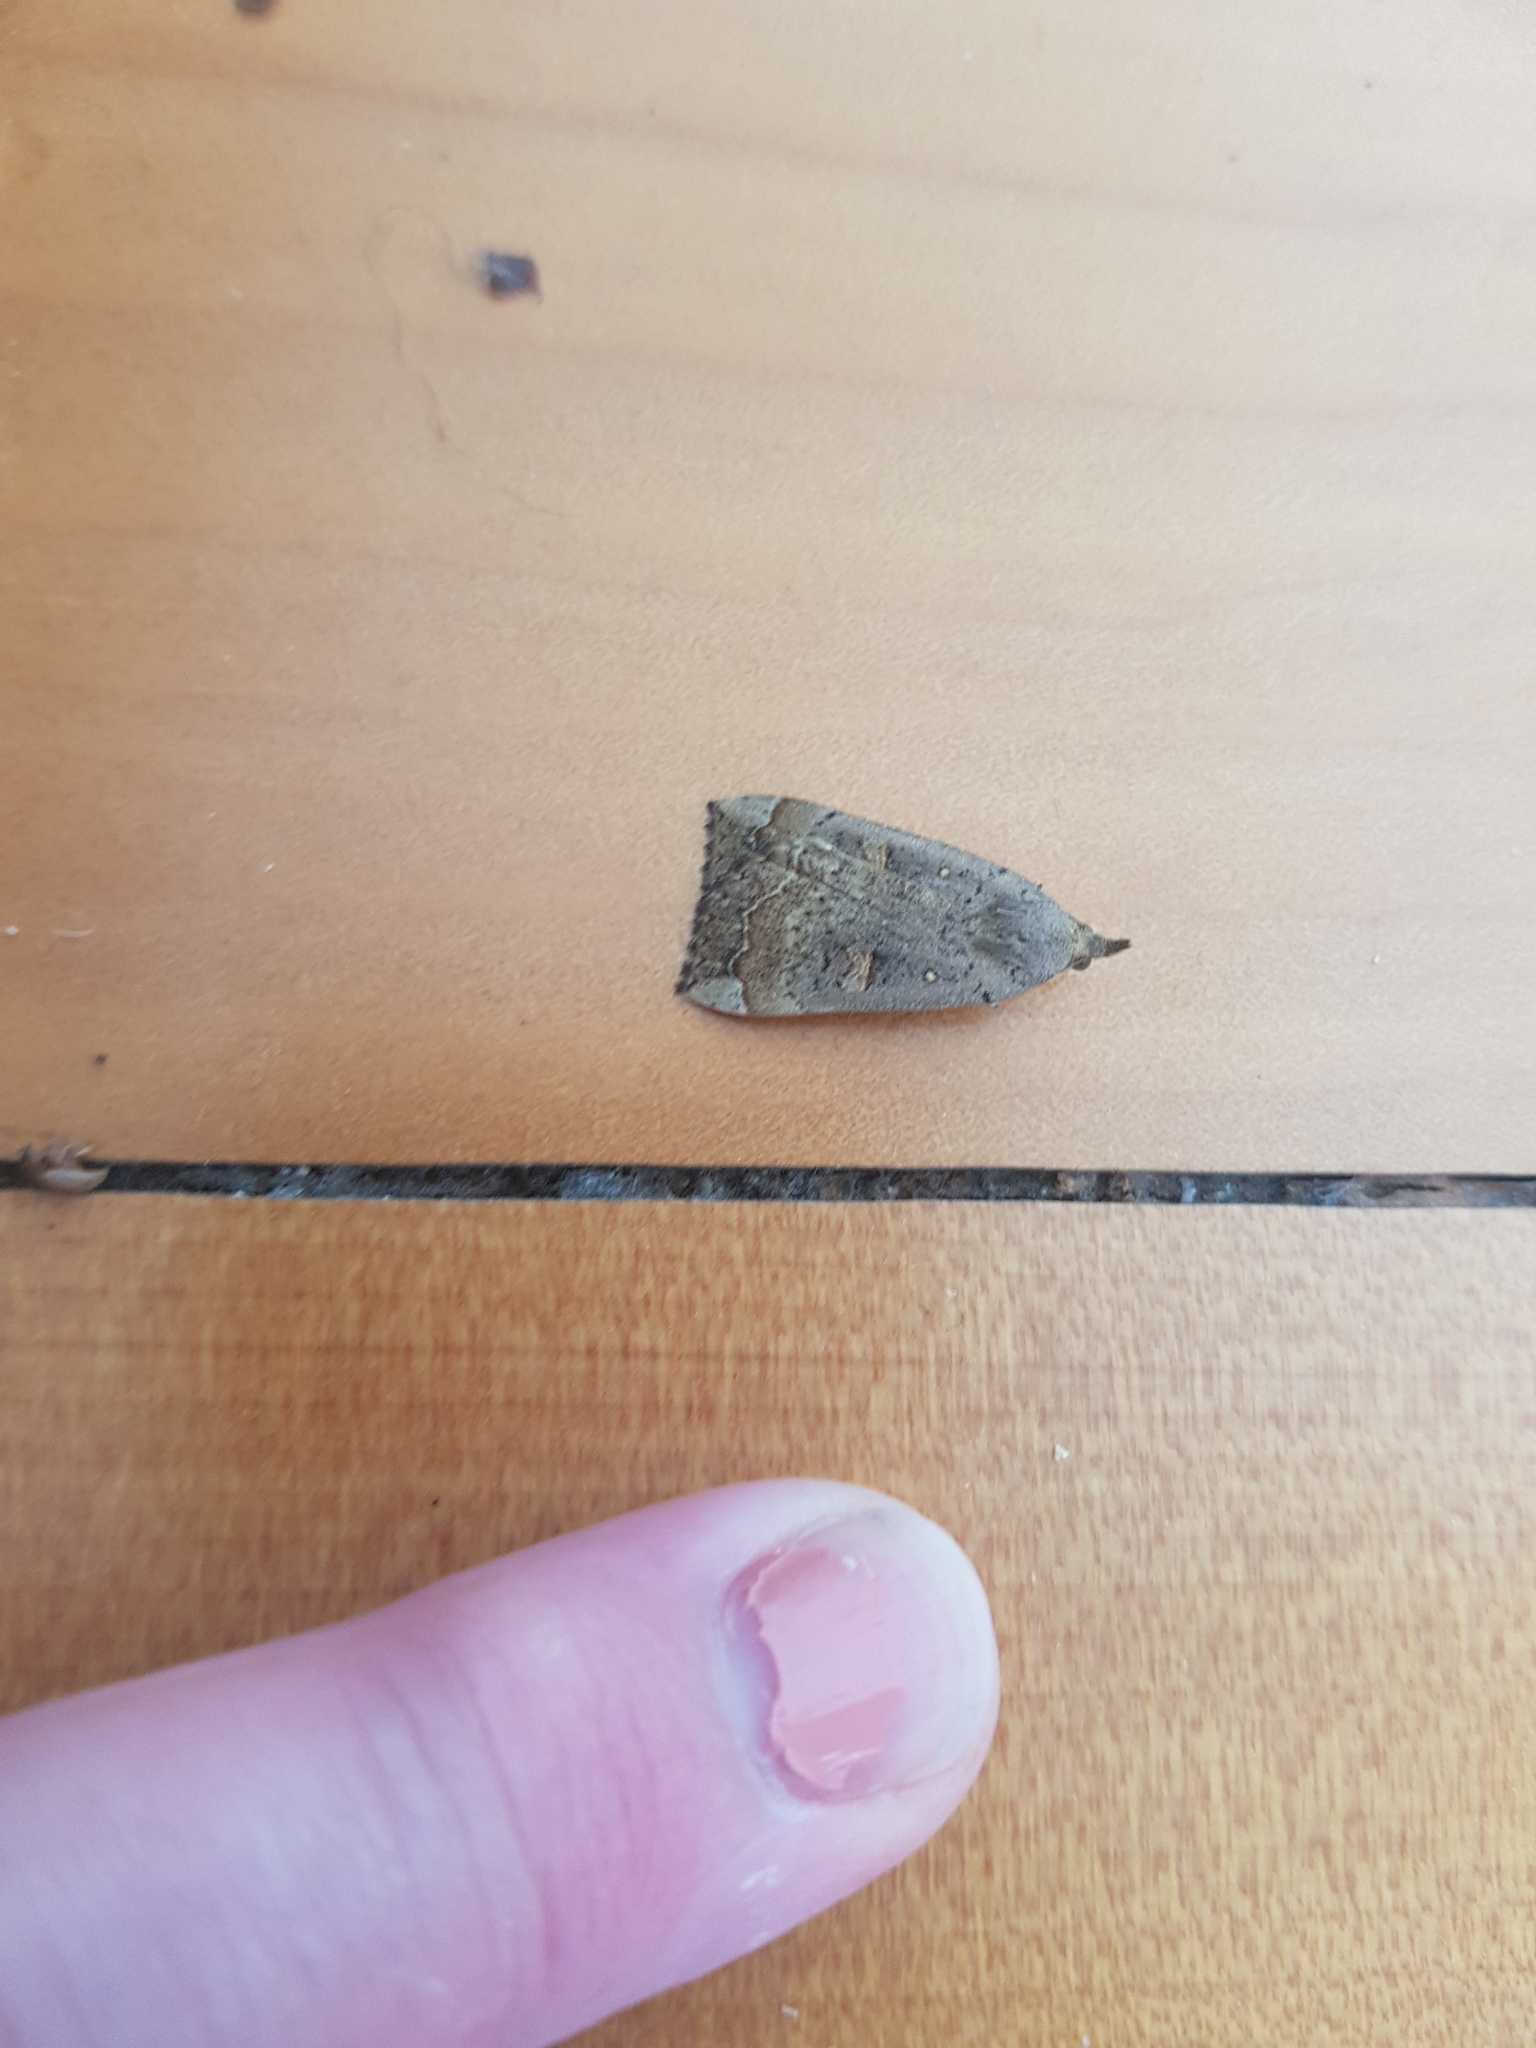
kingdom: Animalia
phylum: Arthropoda
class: Insecta
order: Lepidoptera
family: Erebidae
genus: Rhapsa
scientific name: Rhapsa scotosialis
